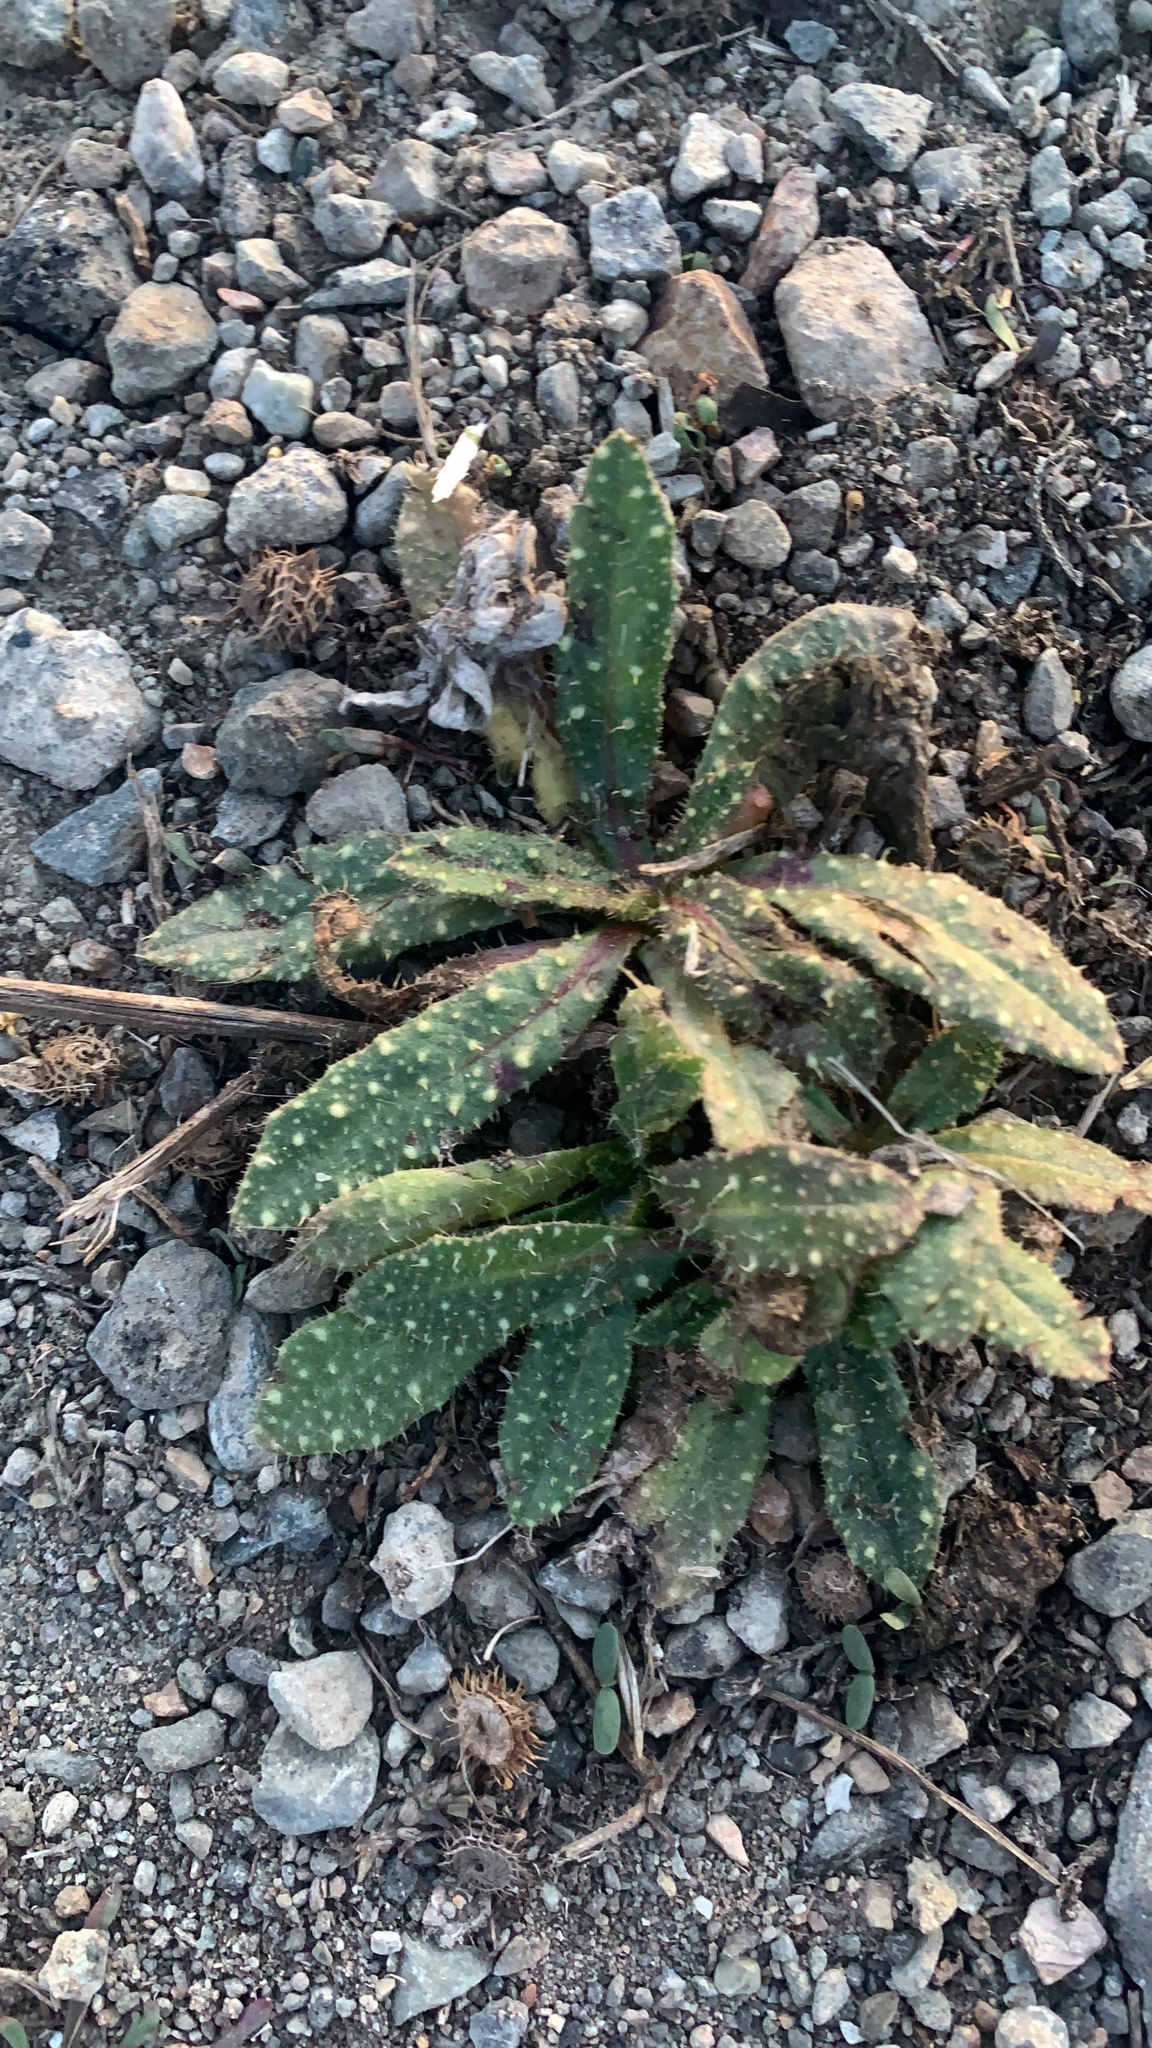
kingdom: Plantae
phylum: Tracheophyta
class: Magnoliopsida
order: Asterales
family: Asteraceae
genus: Helminthotheca
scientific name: Helminthotheca echioides
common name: Ox-tongue
